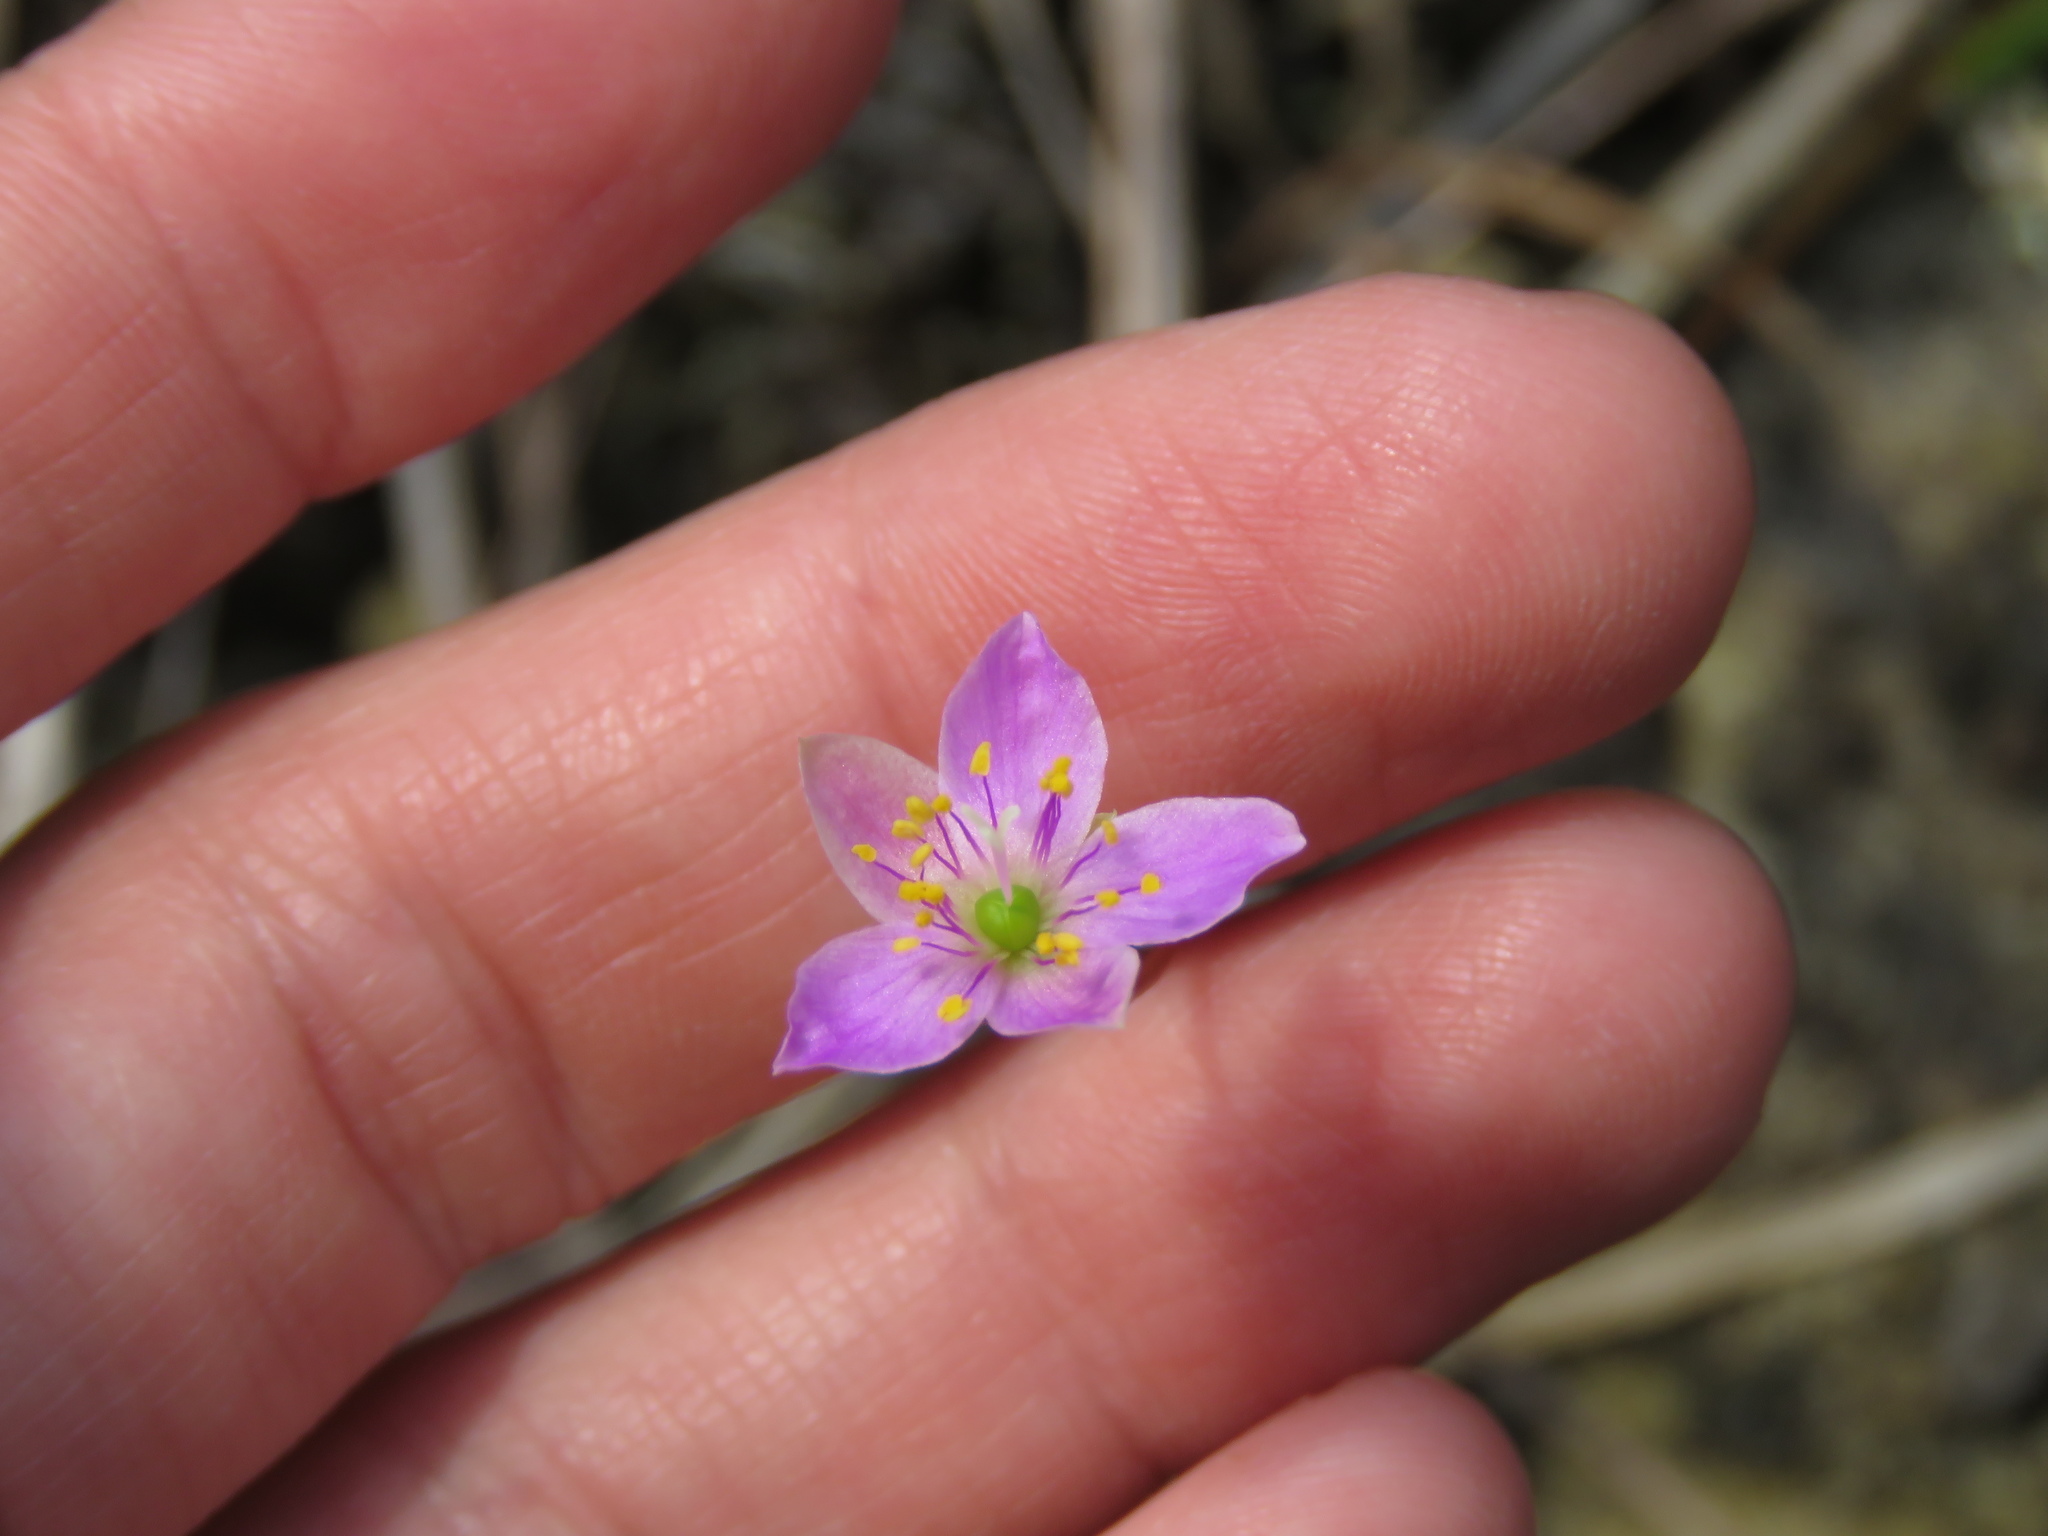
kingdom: Plantae
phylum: Tracheophyta
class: Magnoliopsida
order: Caryophyllales
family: Montiaceae
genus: Phemeranthus
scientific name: Phemeranthus rugospermus
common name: Prairie fameflower
